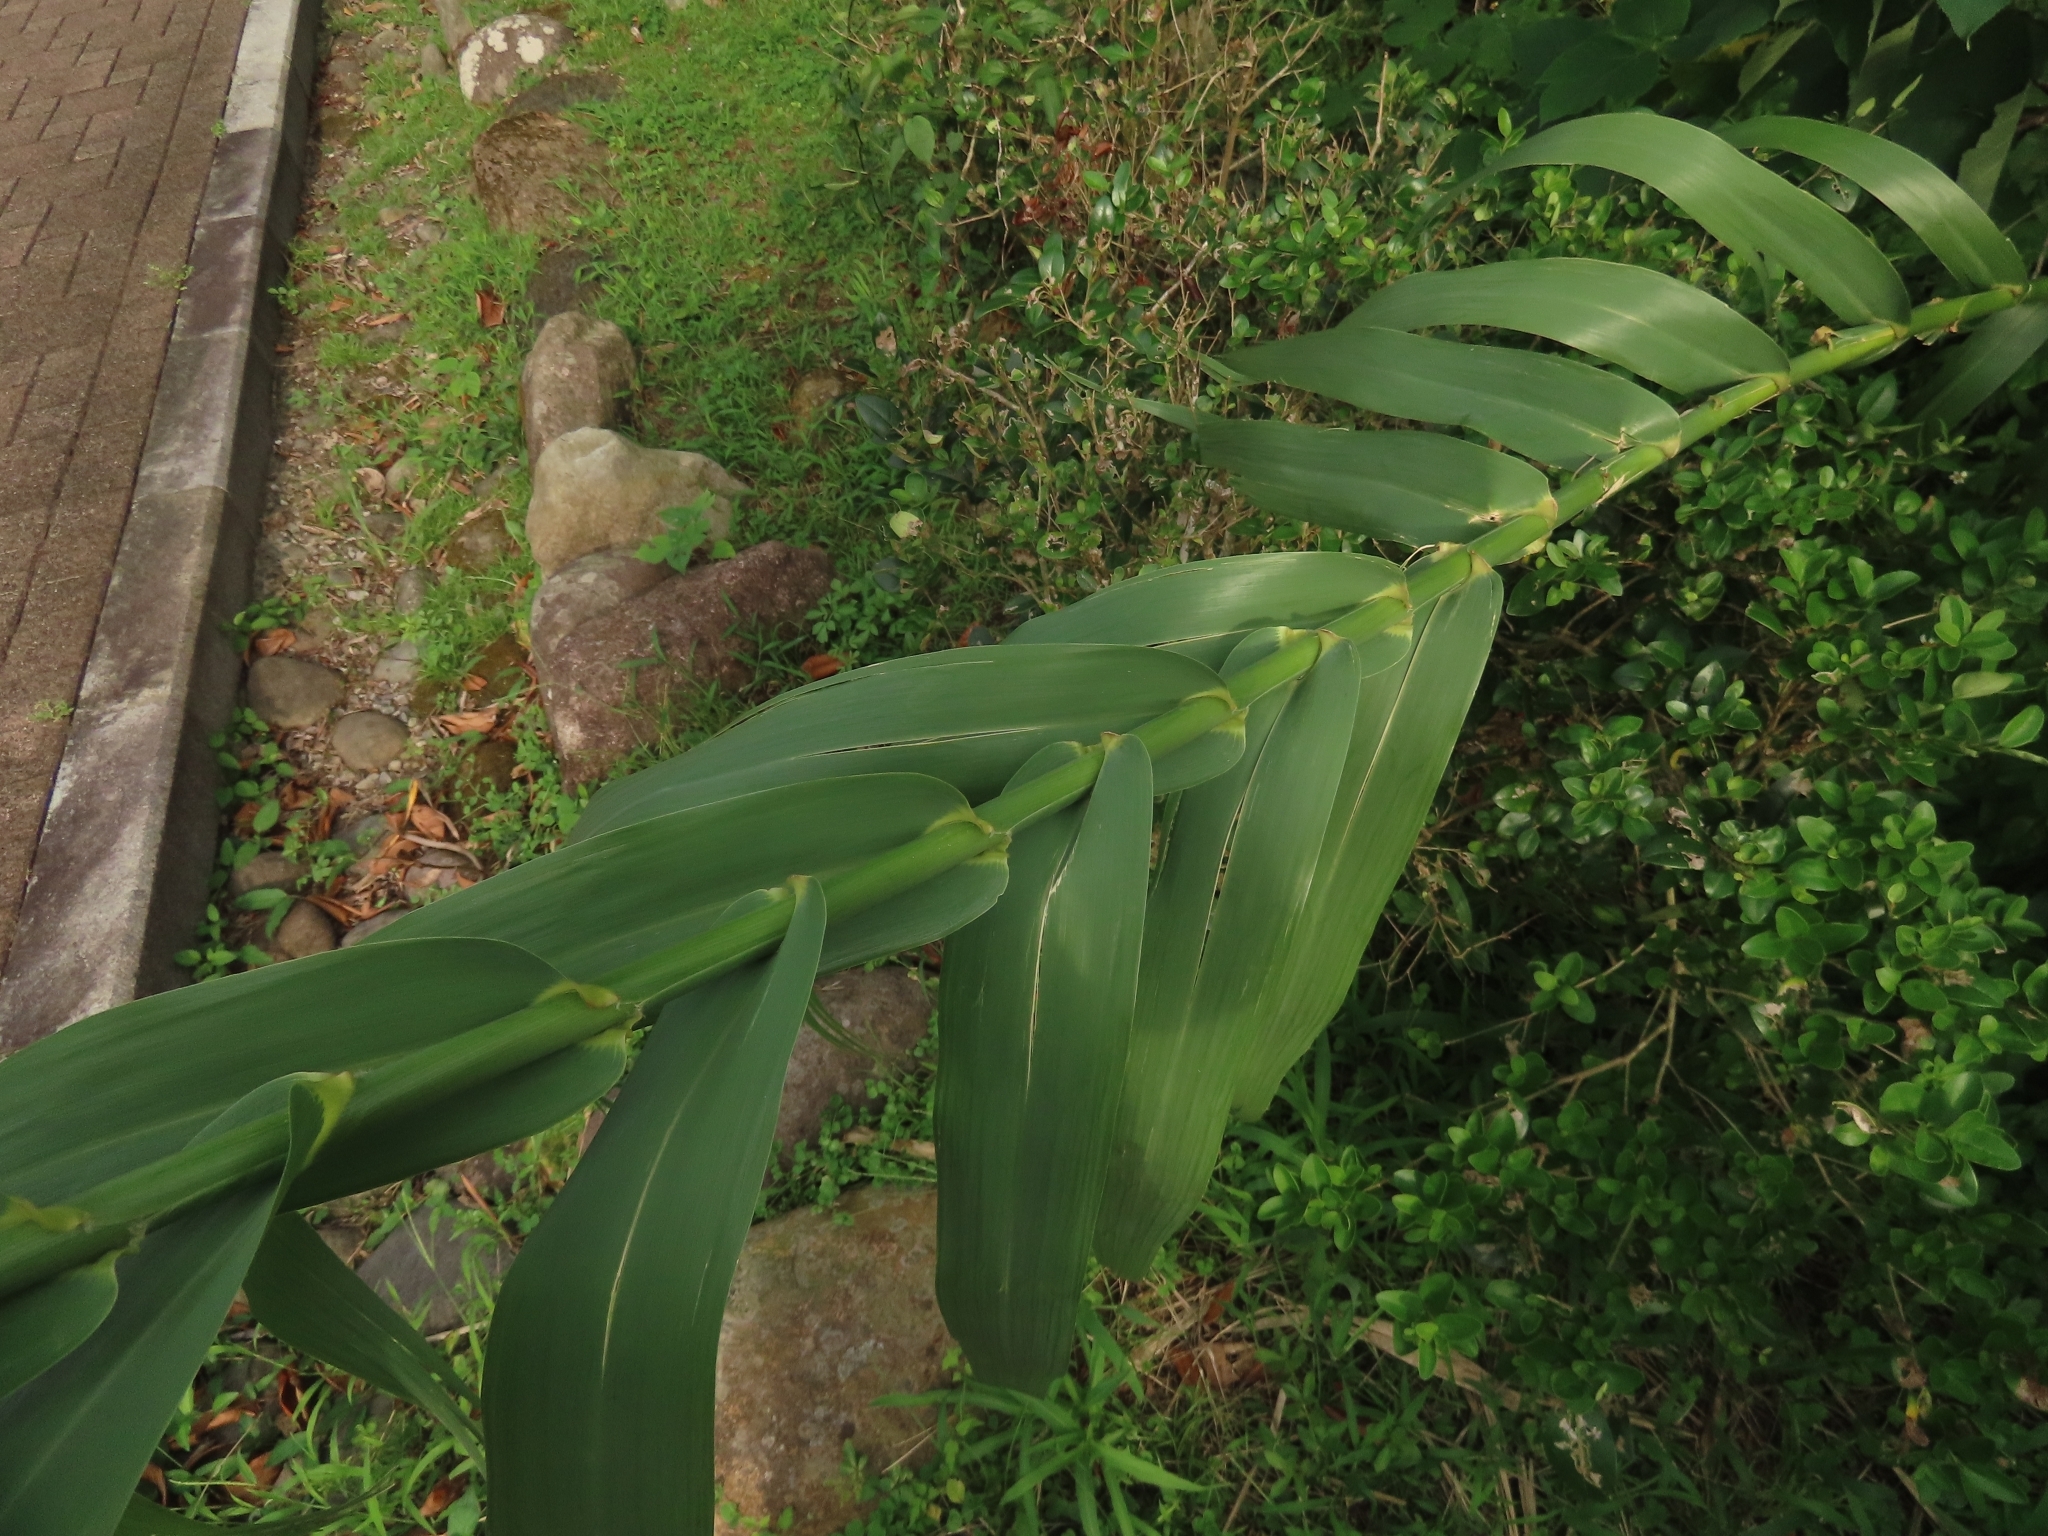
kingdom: Plantae
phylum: Tracheophyta
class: Liliopsida
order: Poales
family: Poaceae
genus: Arundo
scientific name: Arundo donax
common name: Giant reed
